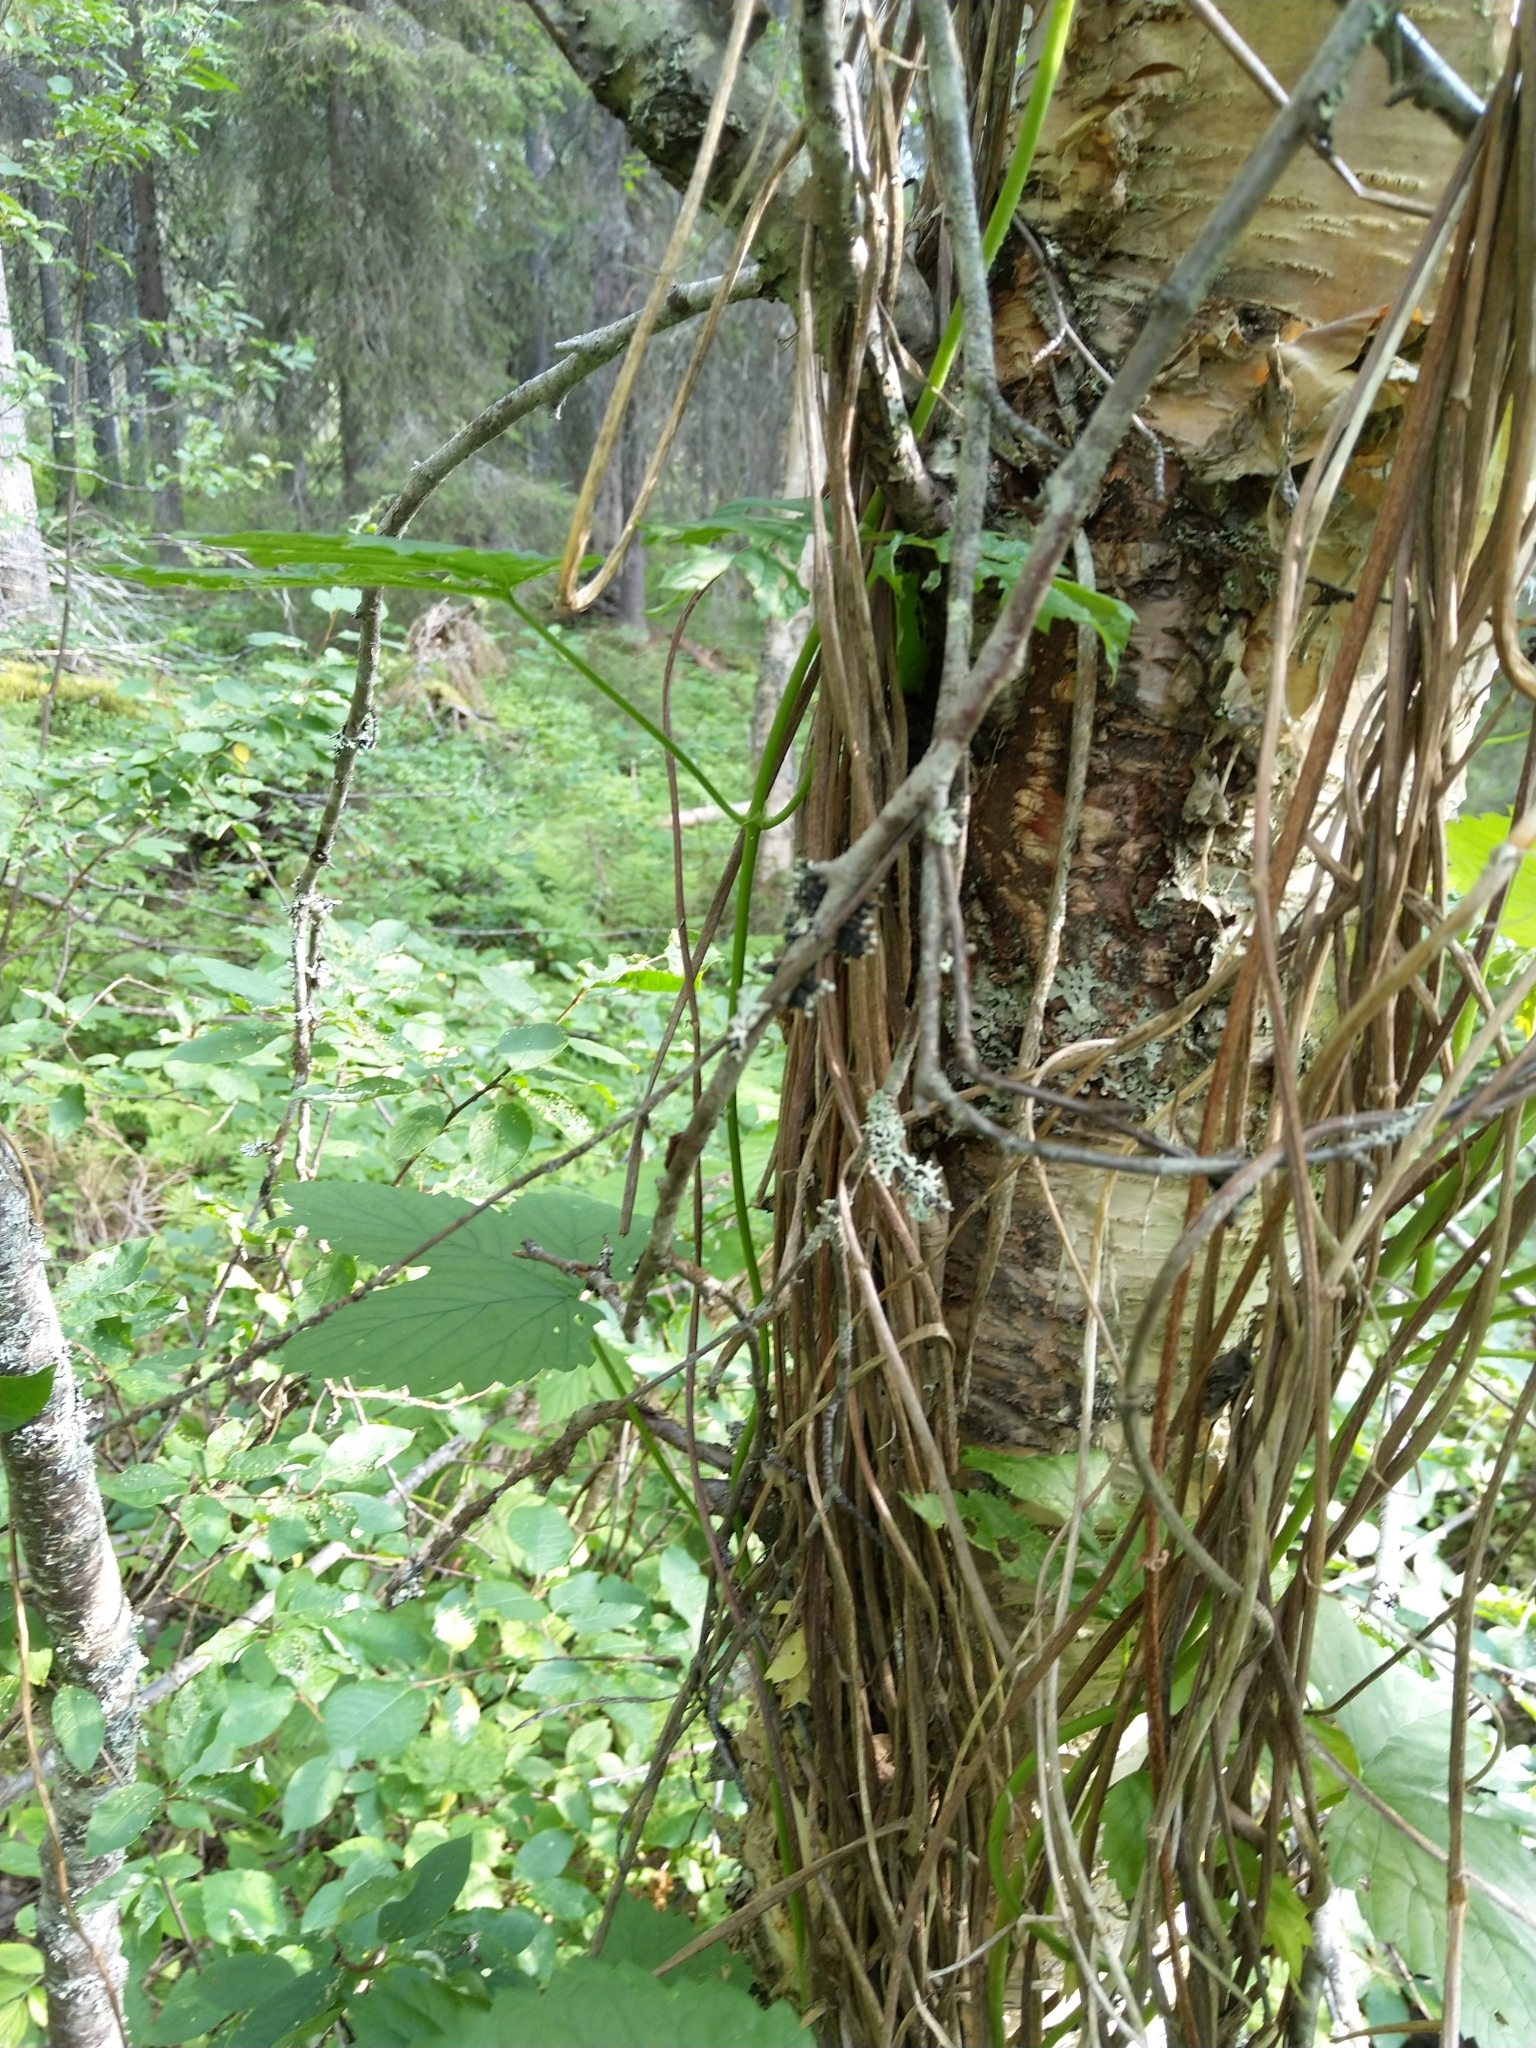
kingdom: Plantae
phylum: Tracheophyta
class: Magnoliopsida
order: Rosales
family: Cannabaceae
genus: Humulus
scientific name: Humulus lupulus
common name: Hop
